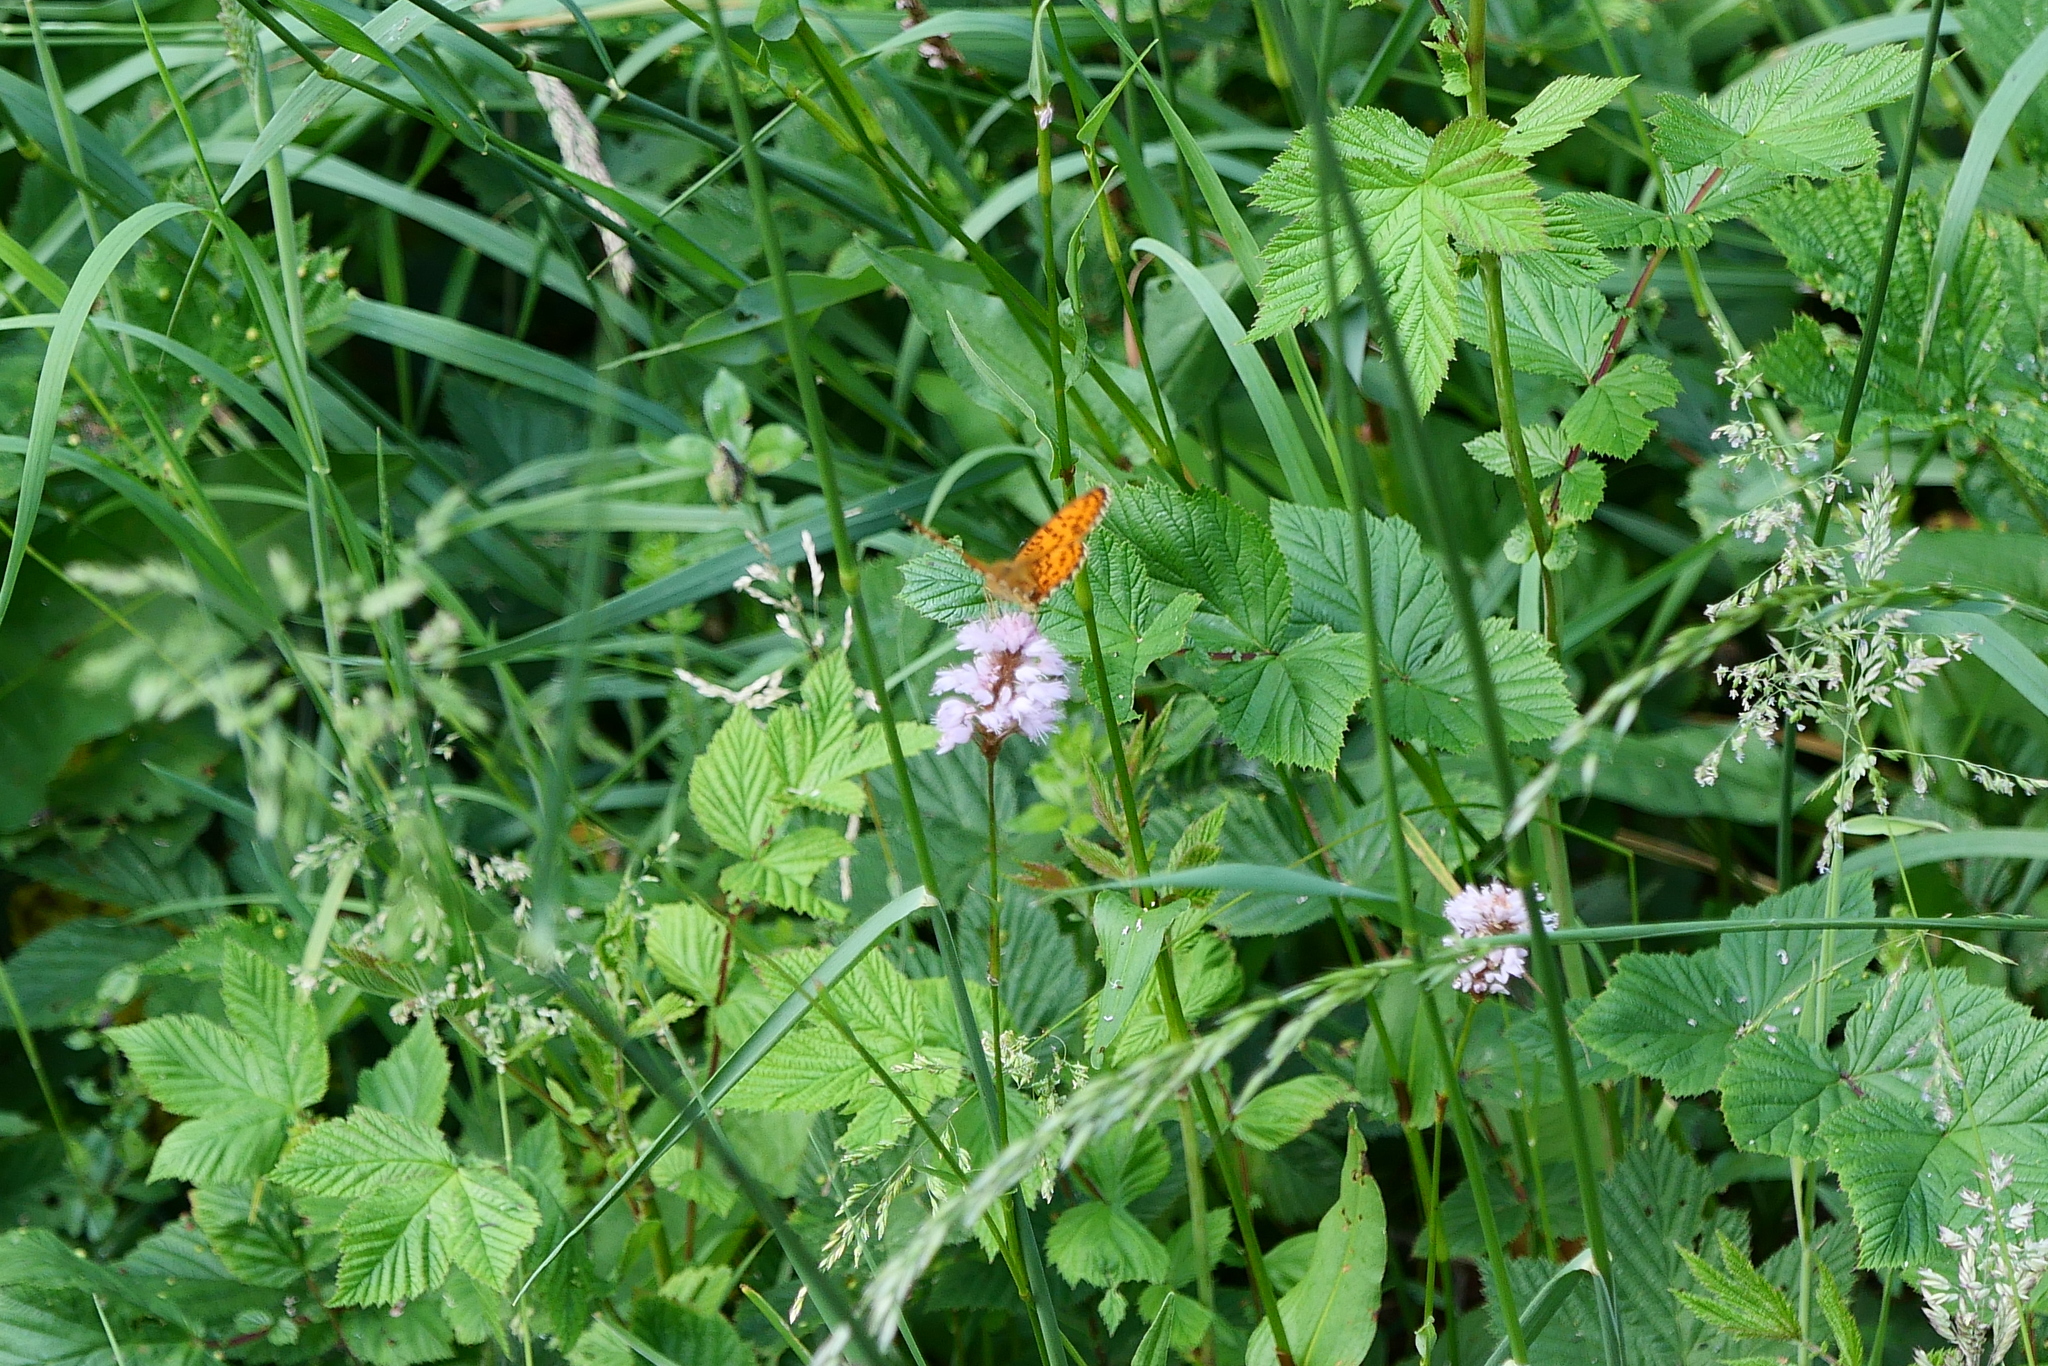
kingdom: Animalia
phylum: Arthropoda
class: Insecta
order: Lepidoptera
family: Nymphalidae
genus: Brenthis
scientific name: Brenthis ino
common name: Lesser marbled fritillary
